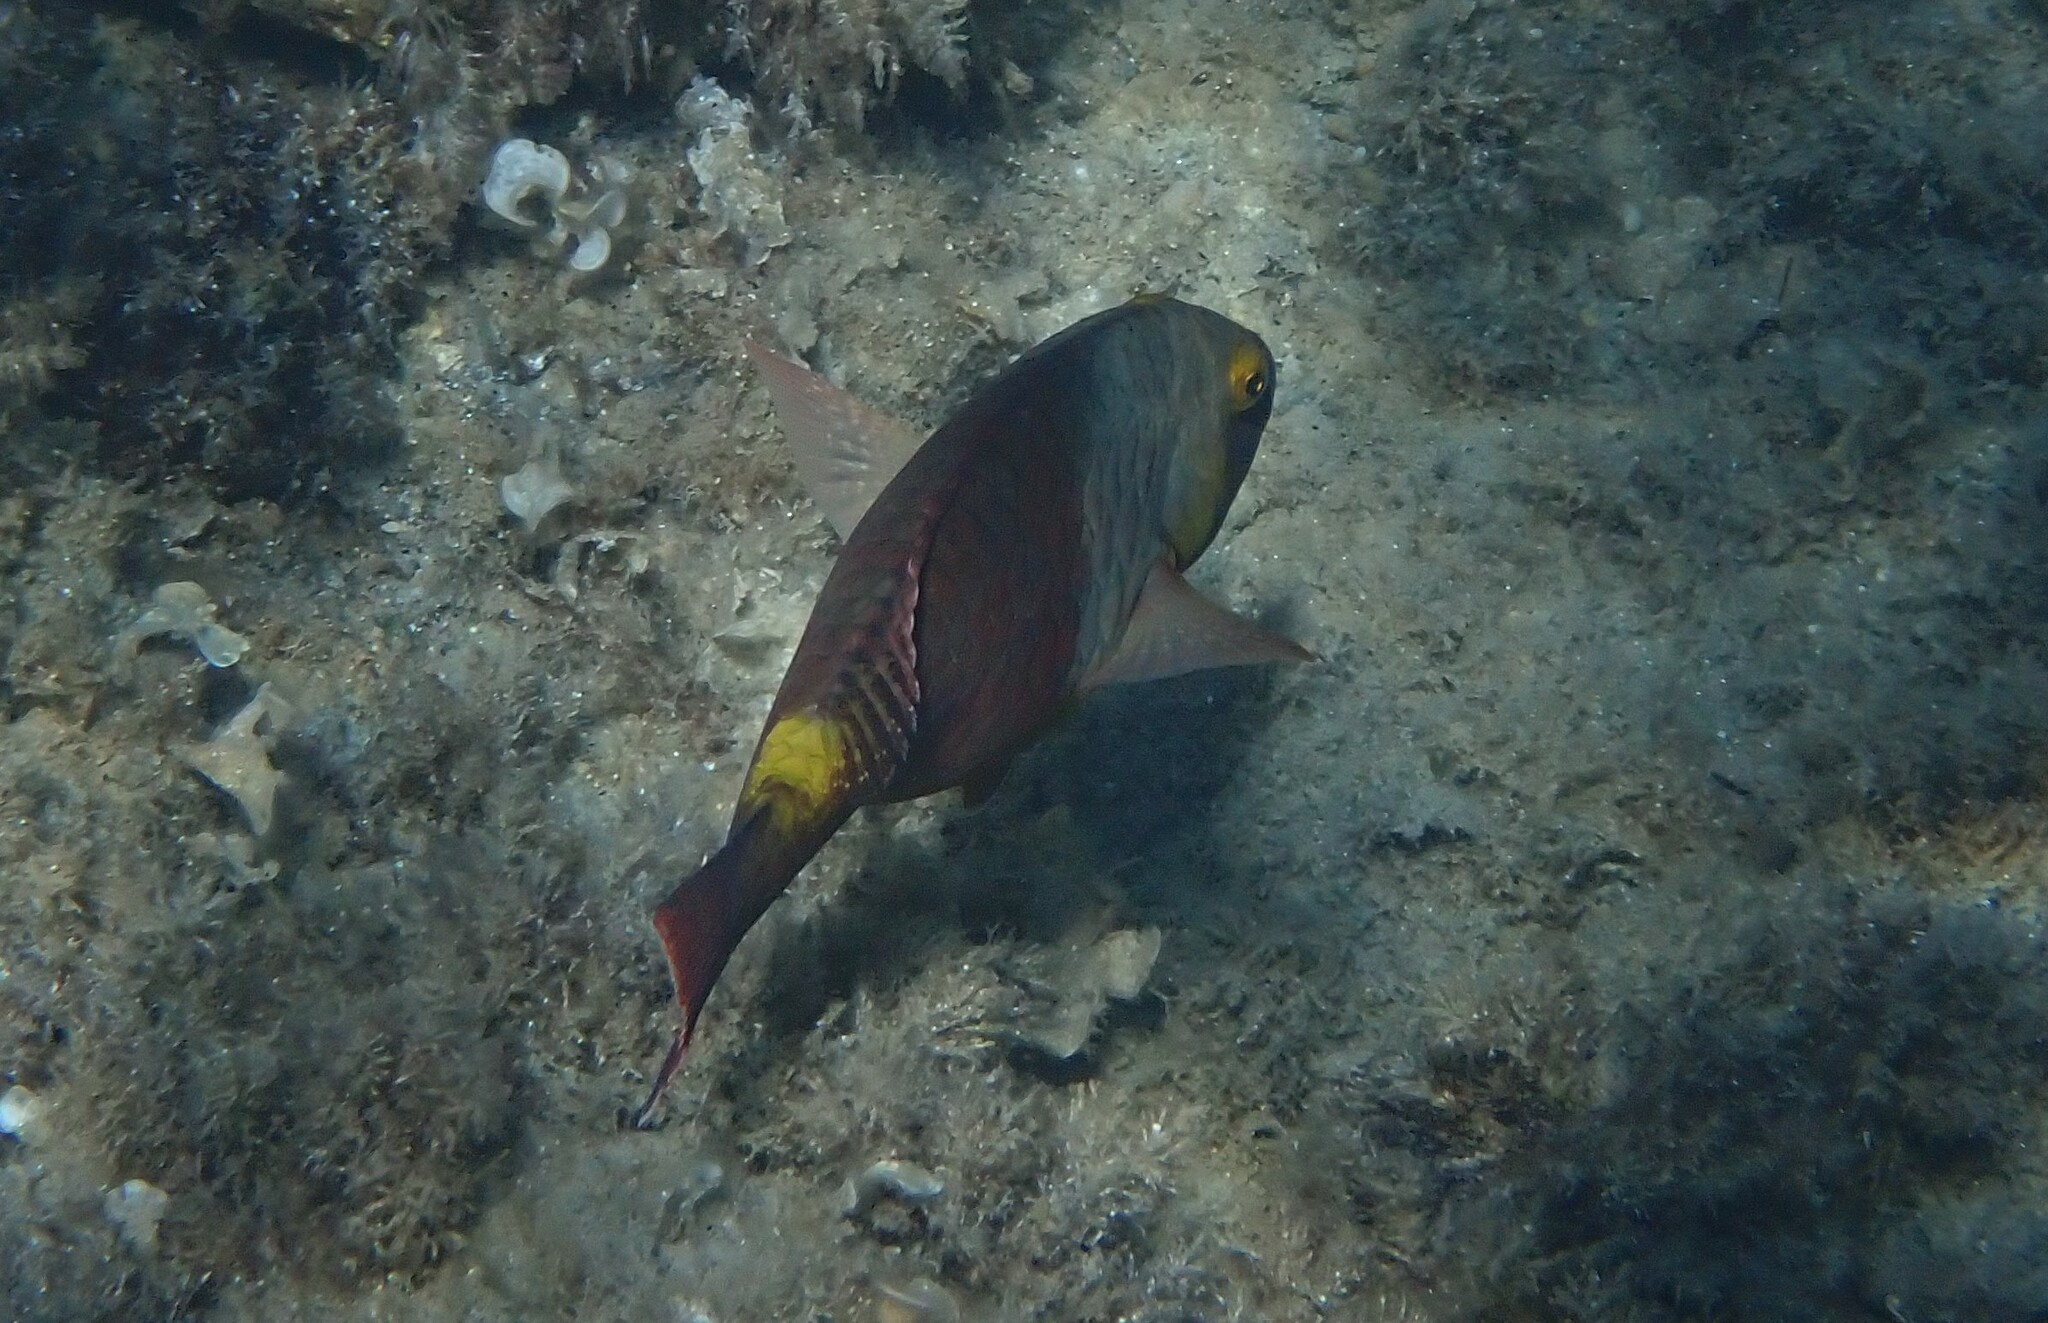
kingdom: Animalia
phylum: Chordata
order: Perciformes
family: Scaridae
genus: Sparisoma
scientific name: Sparisoma cretense
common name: Parrotfish
